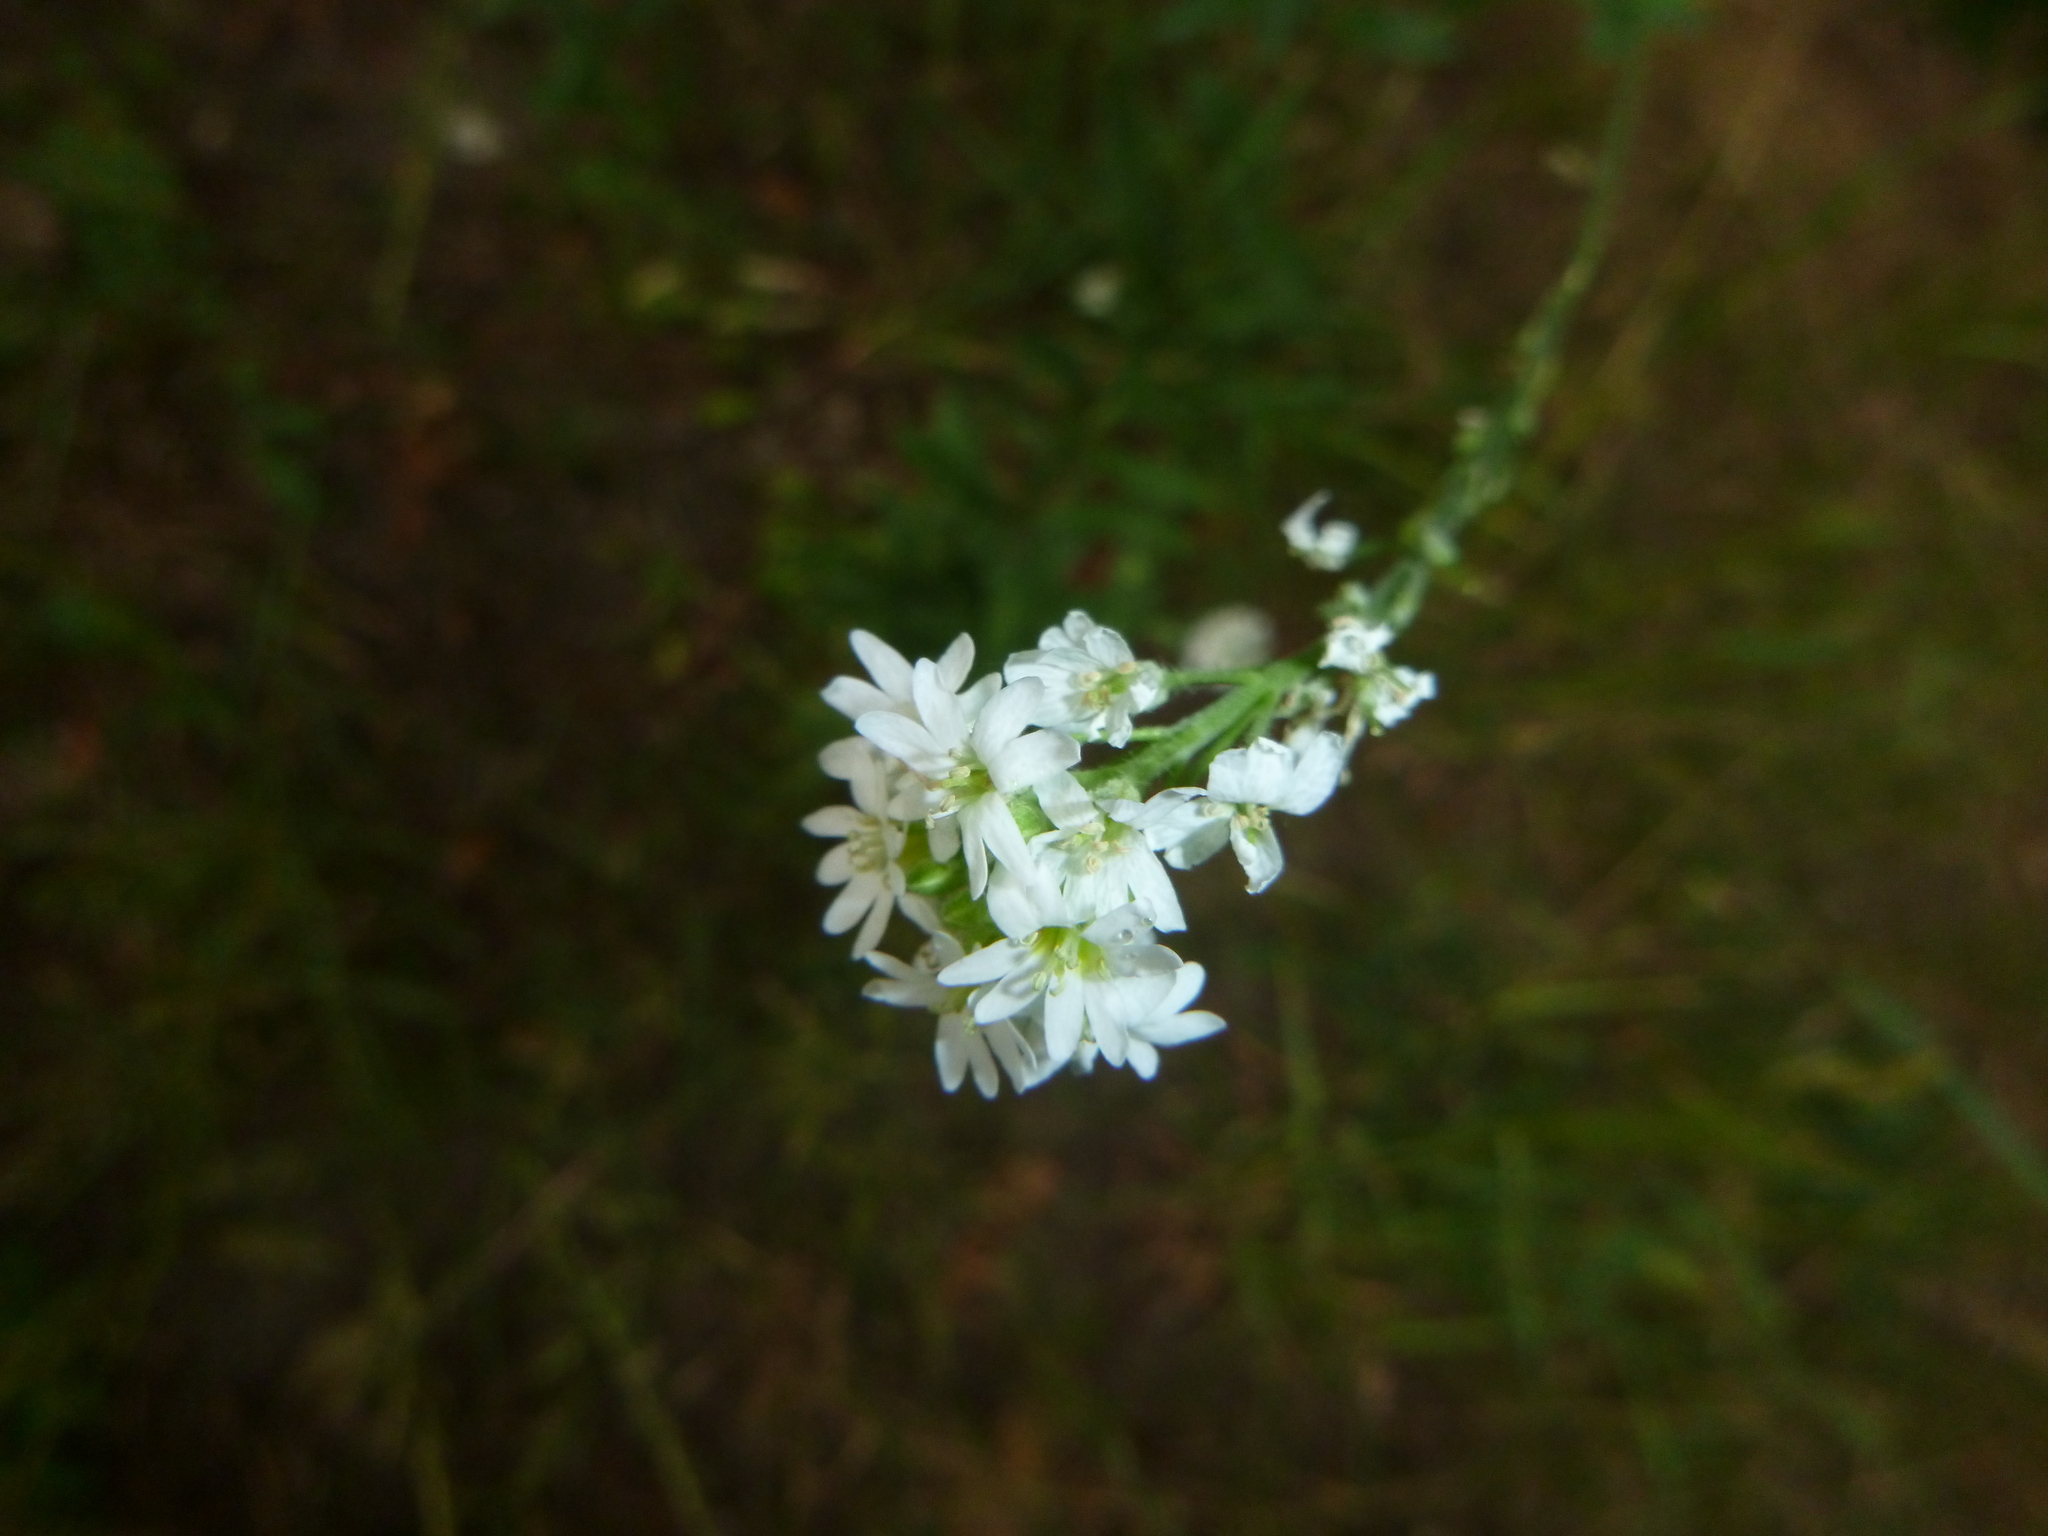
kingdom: Plantae
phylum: Tracheophyta
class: Magnoliopsida
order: Brassicales
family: Brassicaceae
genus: Berteroa
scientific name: Berteroa incana
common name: Hoary alison
